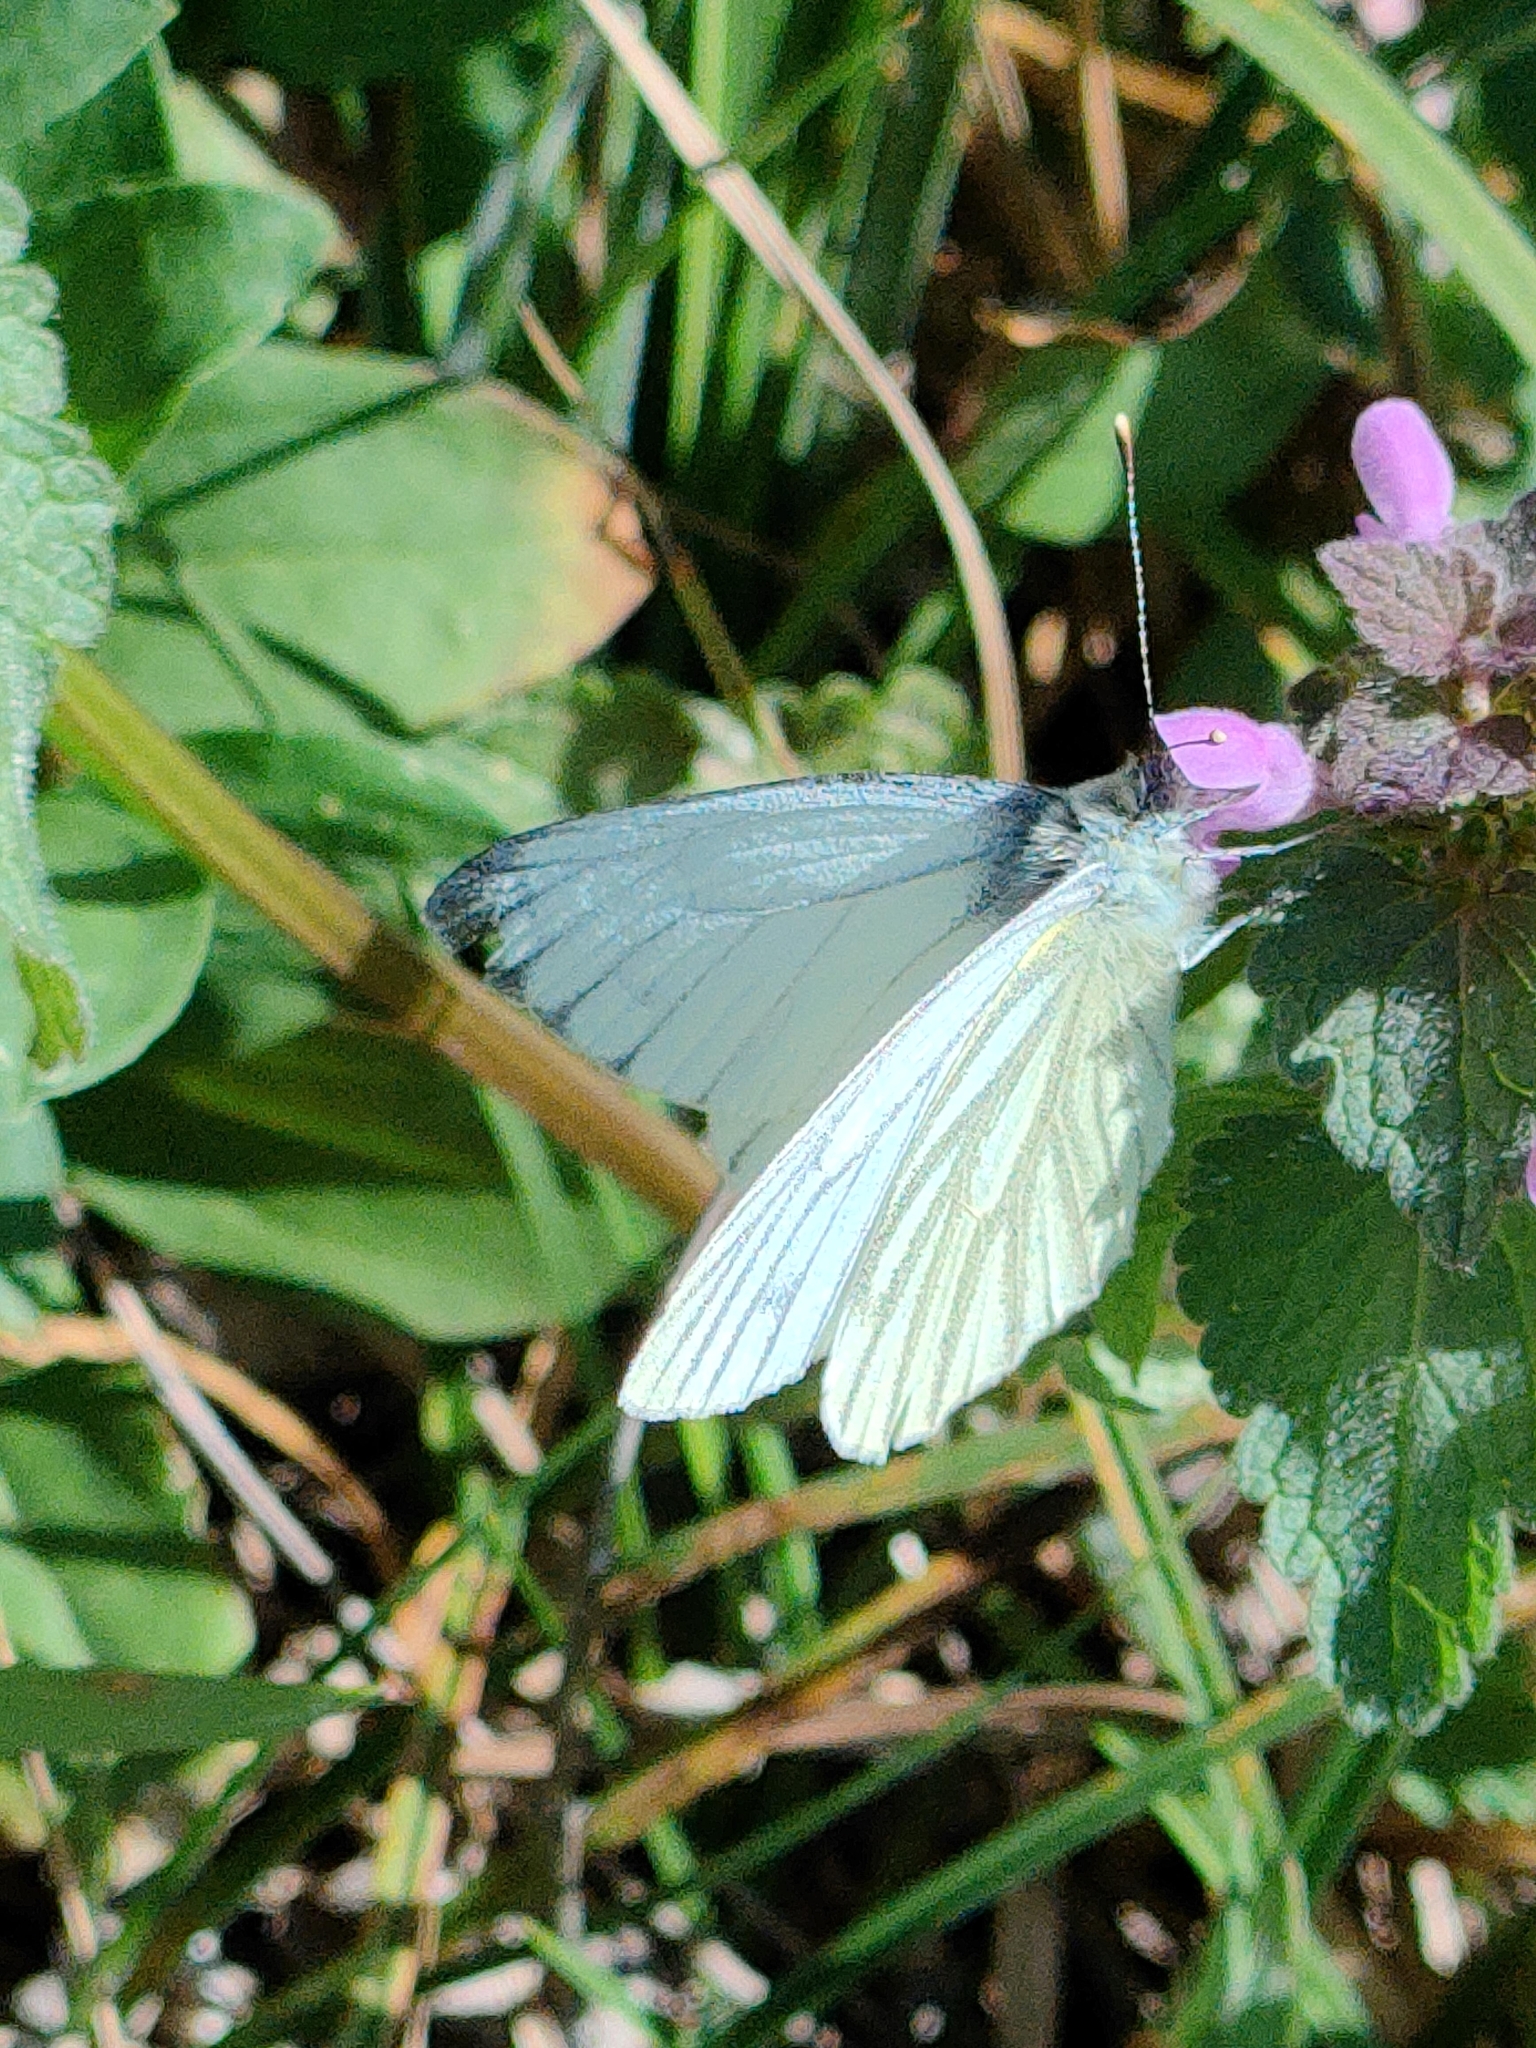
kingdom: Animalia
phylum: Arthropoda
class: Insecta
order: Lepidoptera
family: Pieridae
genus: Pieris
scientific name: Pieris napi
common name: Green-veined white
